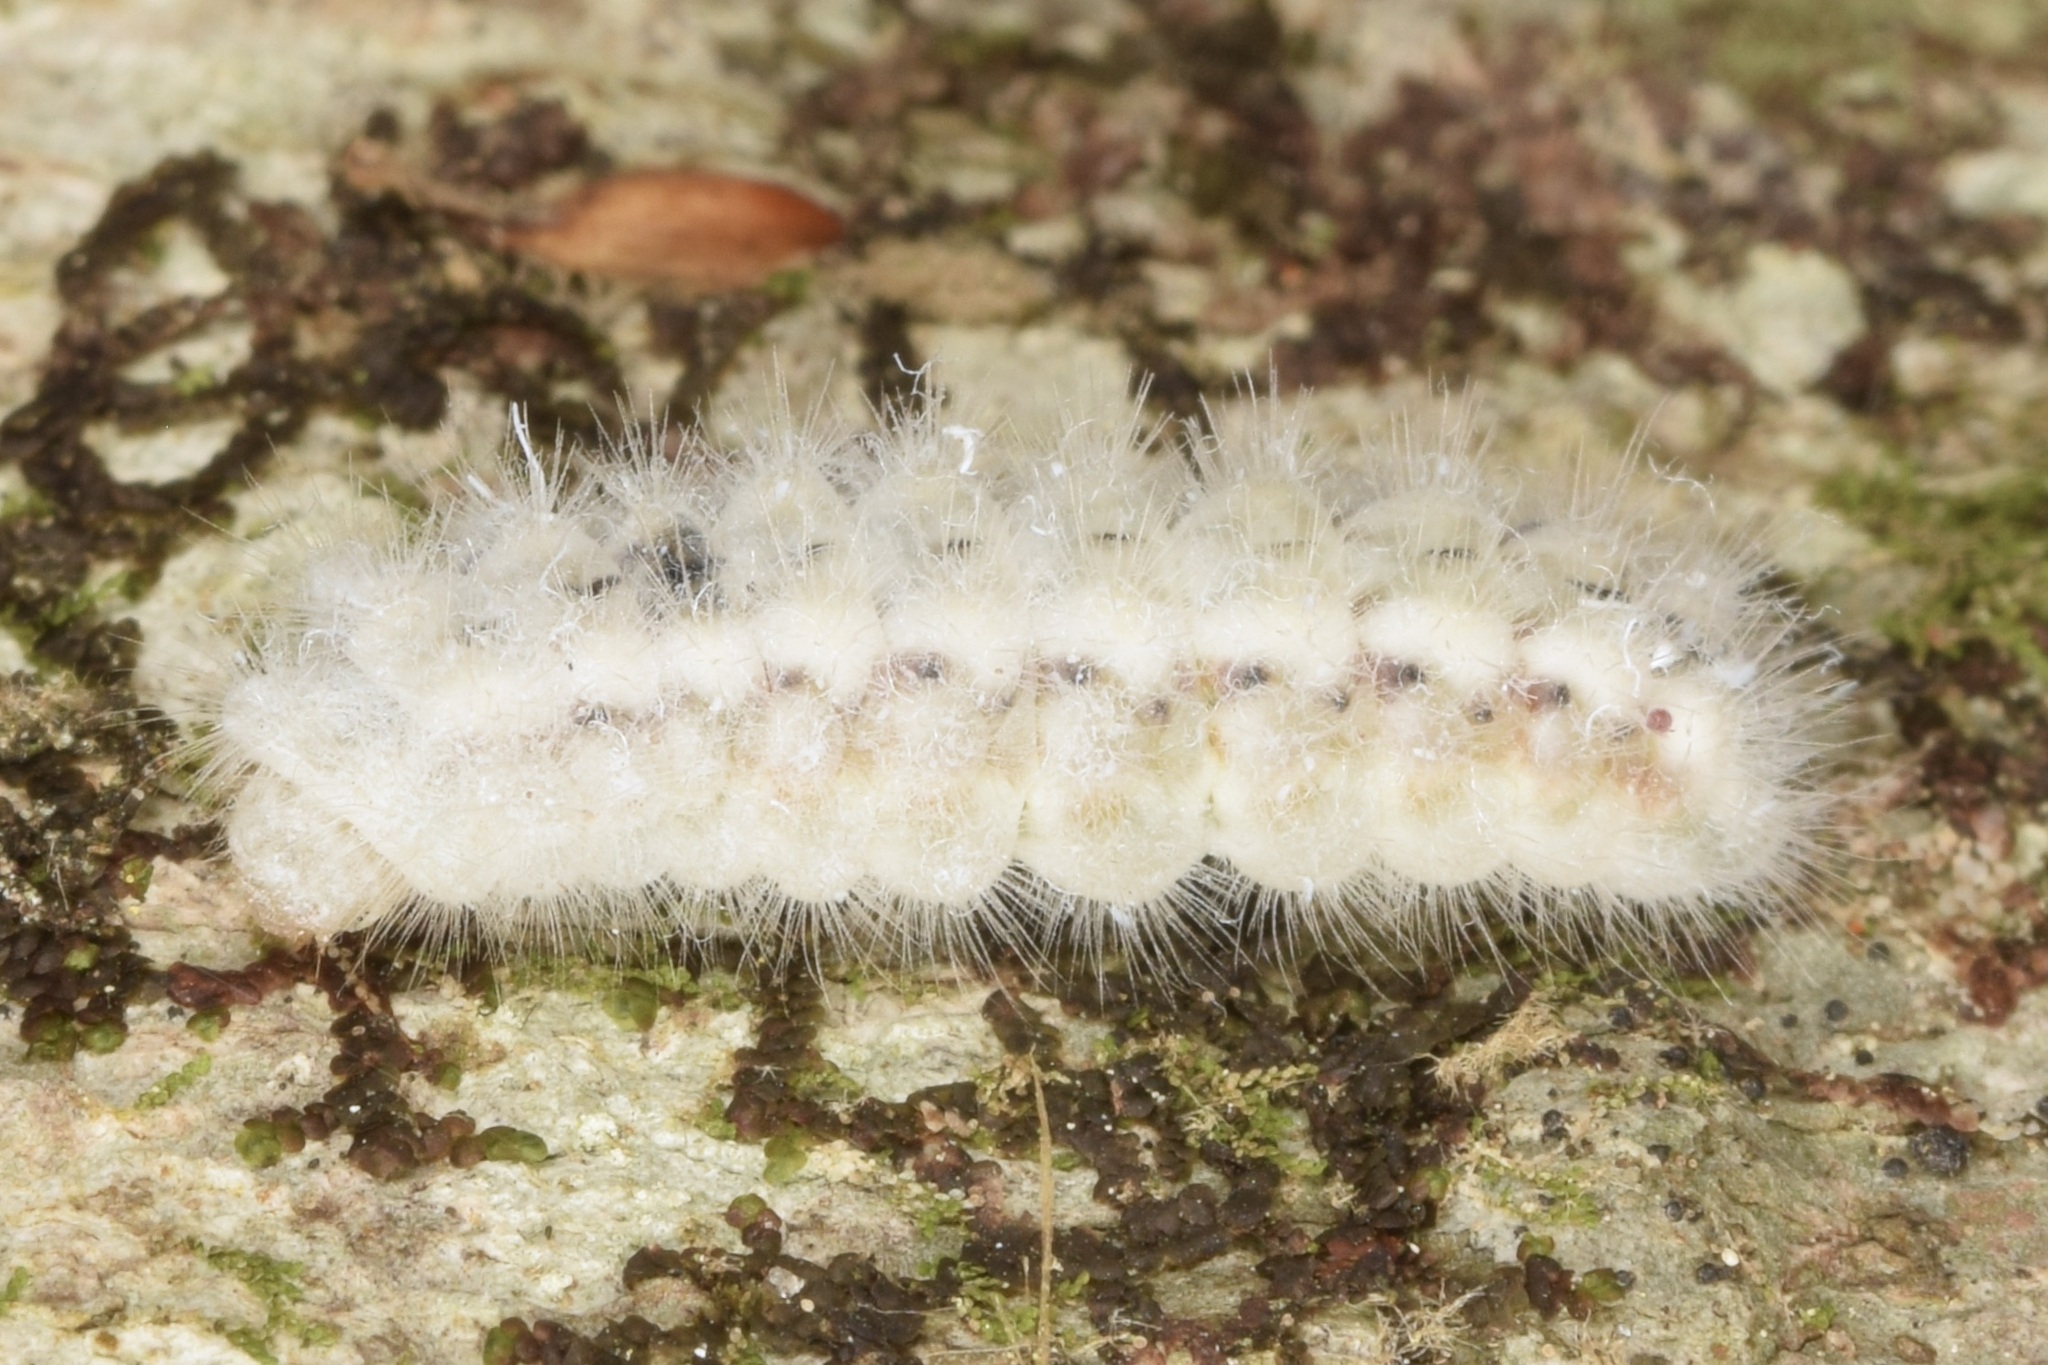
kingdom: Animalia
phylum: Arthropoda
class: Insecta
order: Lepidoptera
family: Lycaenidae
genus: Feniseca
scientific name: Feniseca tarquinius
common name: Harvester
